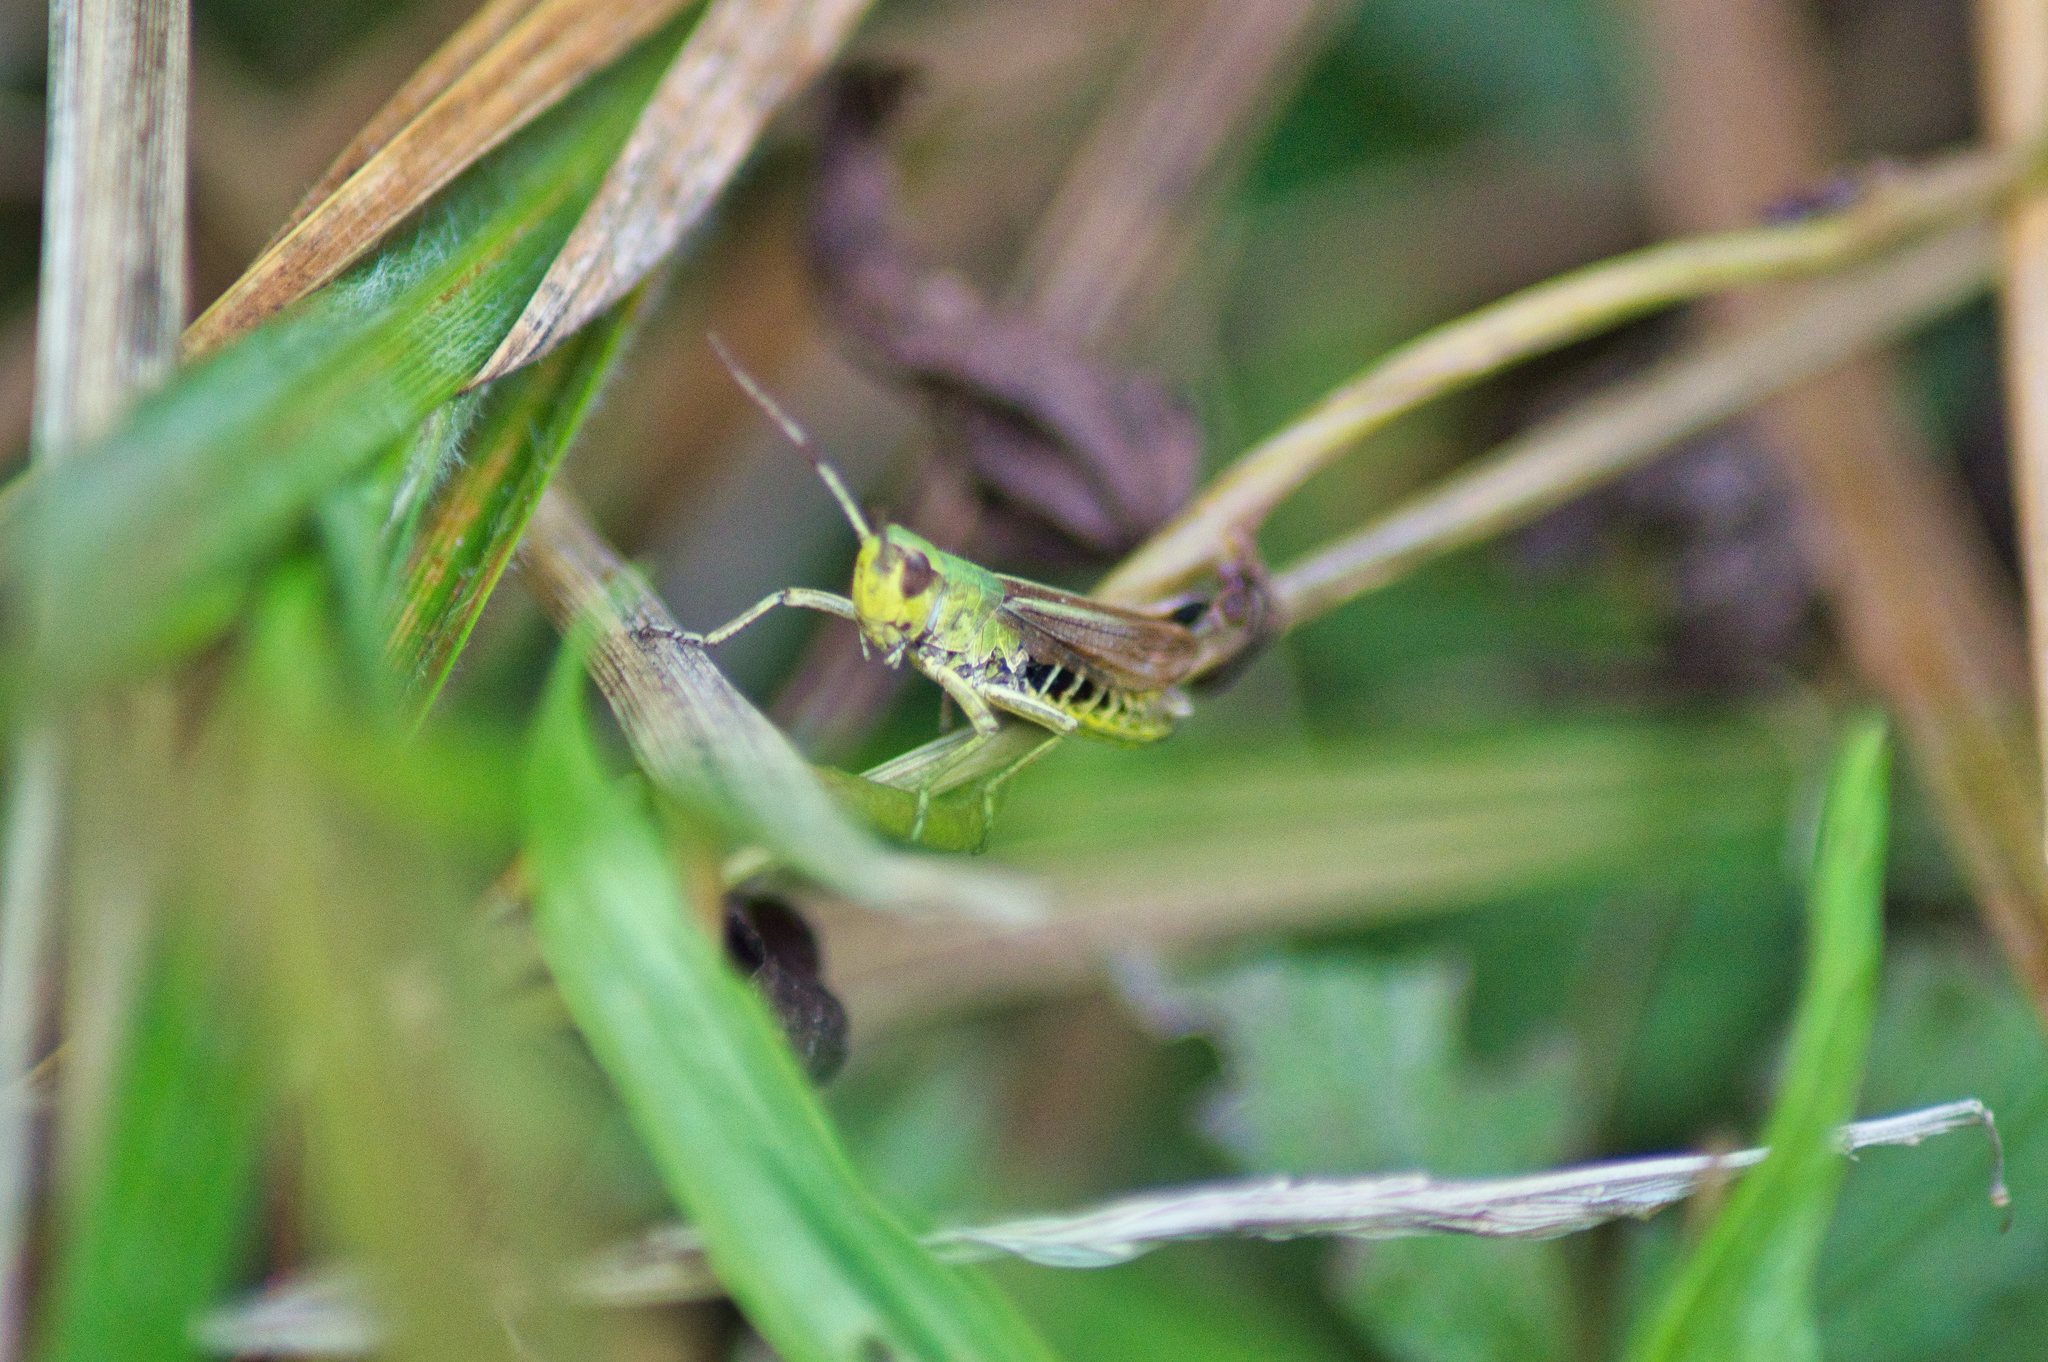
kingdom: Animalia
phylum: Arthropoda
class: Insecta
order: Orthoptera
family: Acrididae
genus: Pseudochorthippus
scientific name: Pseudochorthippus parallelus
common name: Meadow grasshopper
